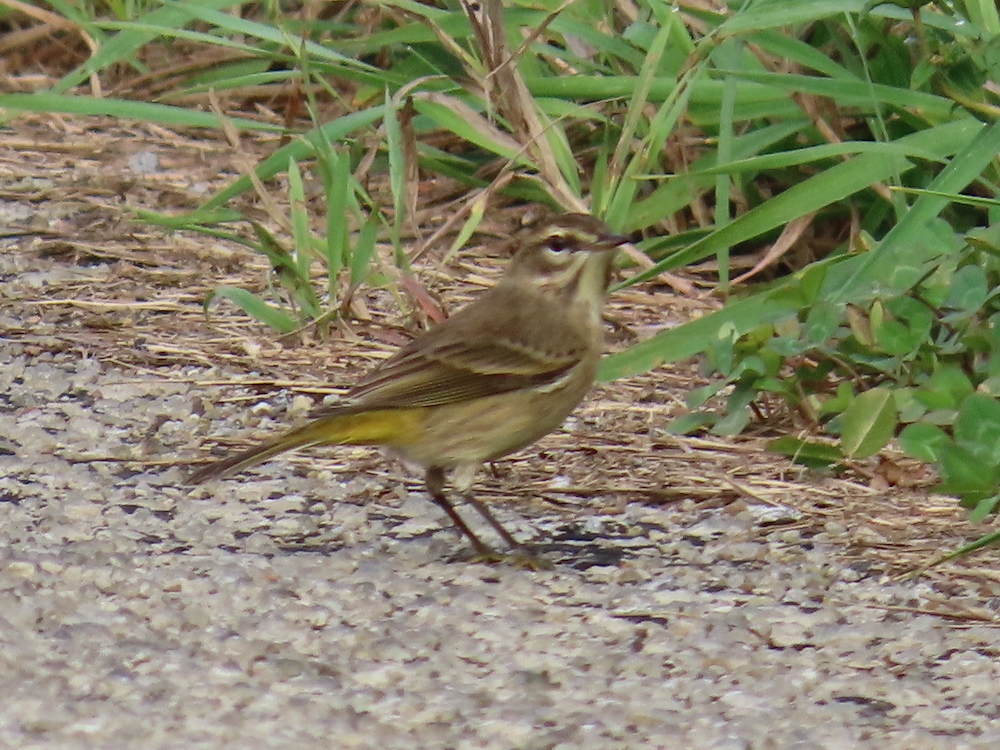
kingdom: Animalia
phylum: Chordata
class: Aves
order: Passeriformes
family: Parulidae
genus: Setophaga
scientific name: Setophaga palmarum
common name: Palm warbler
